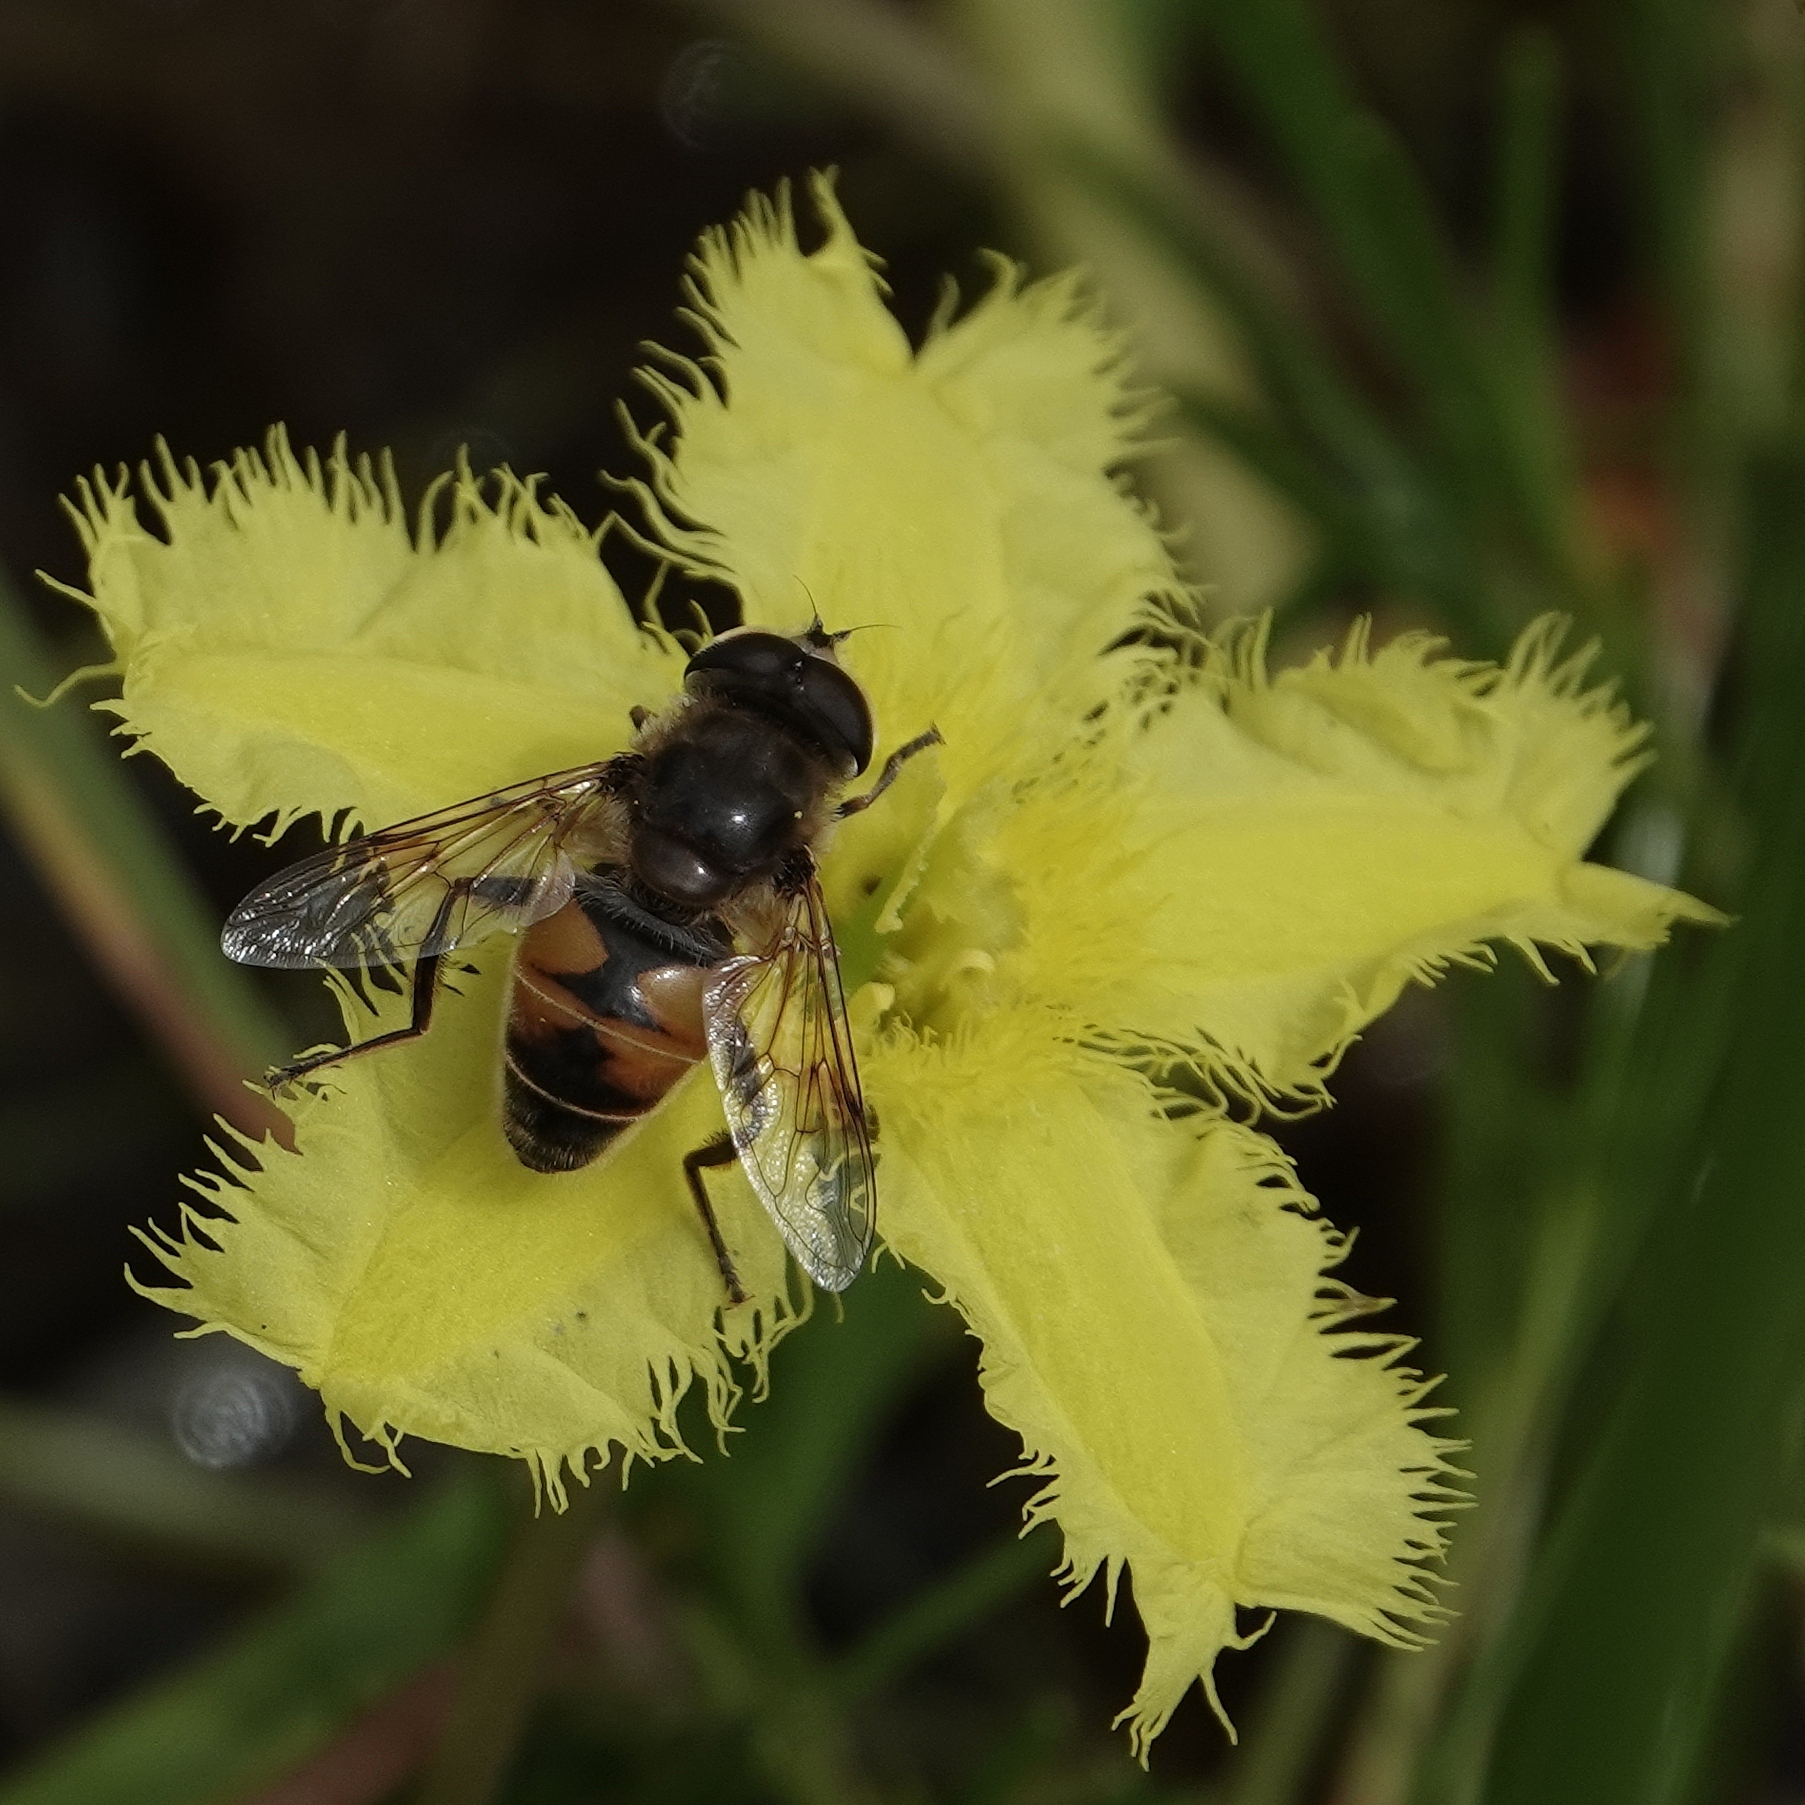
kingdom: Animalia
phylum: Arthropoda
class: Insecta
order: Diptera
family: Syrphidae
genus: Eristalis
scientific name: Eristalis tenax
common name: Drone fly
